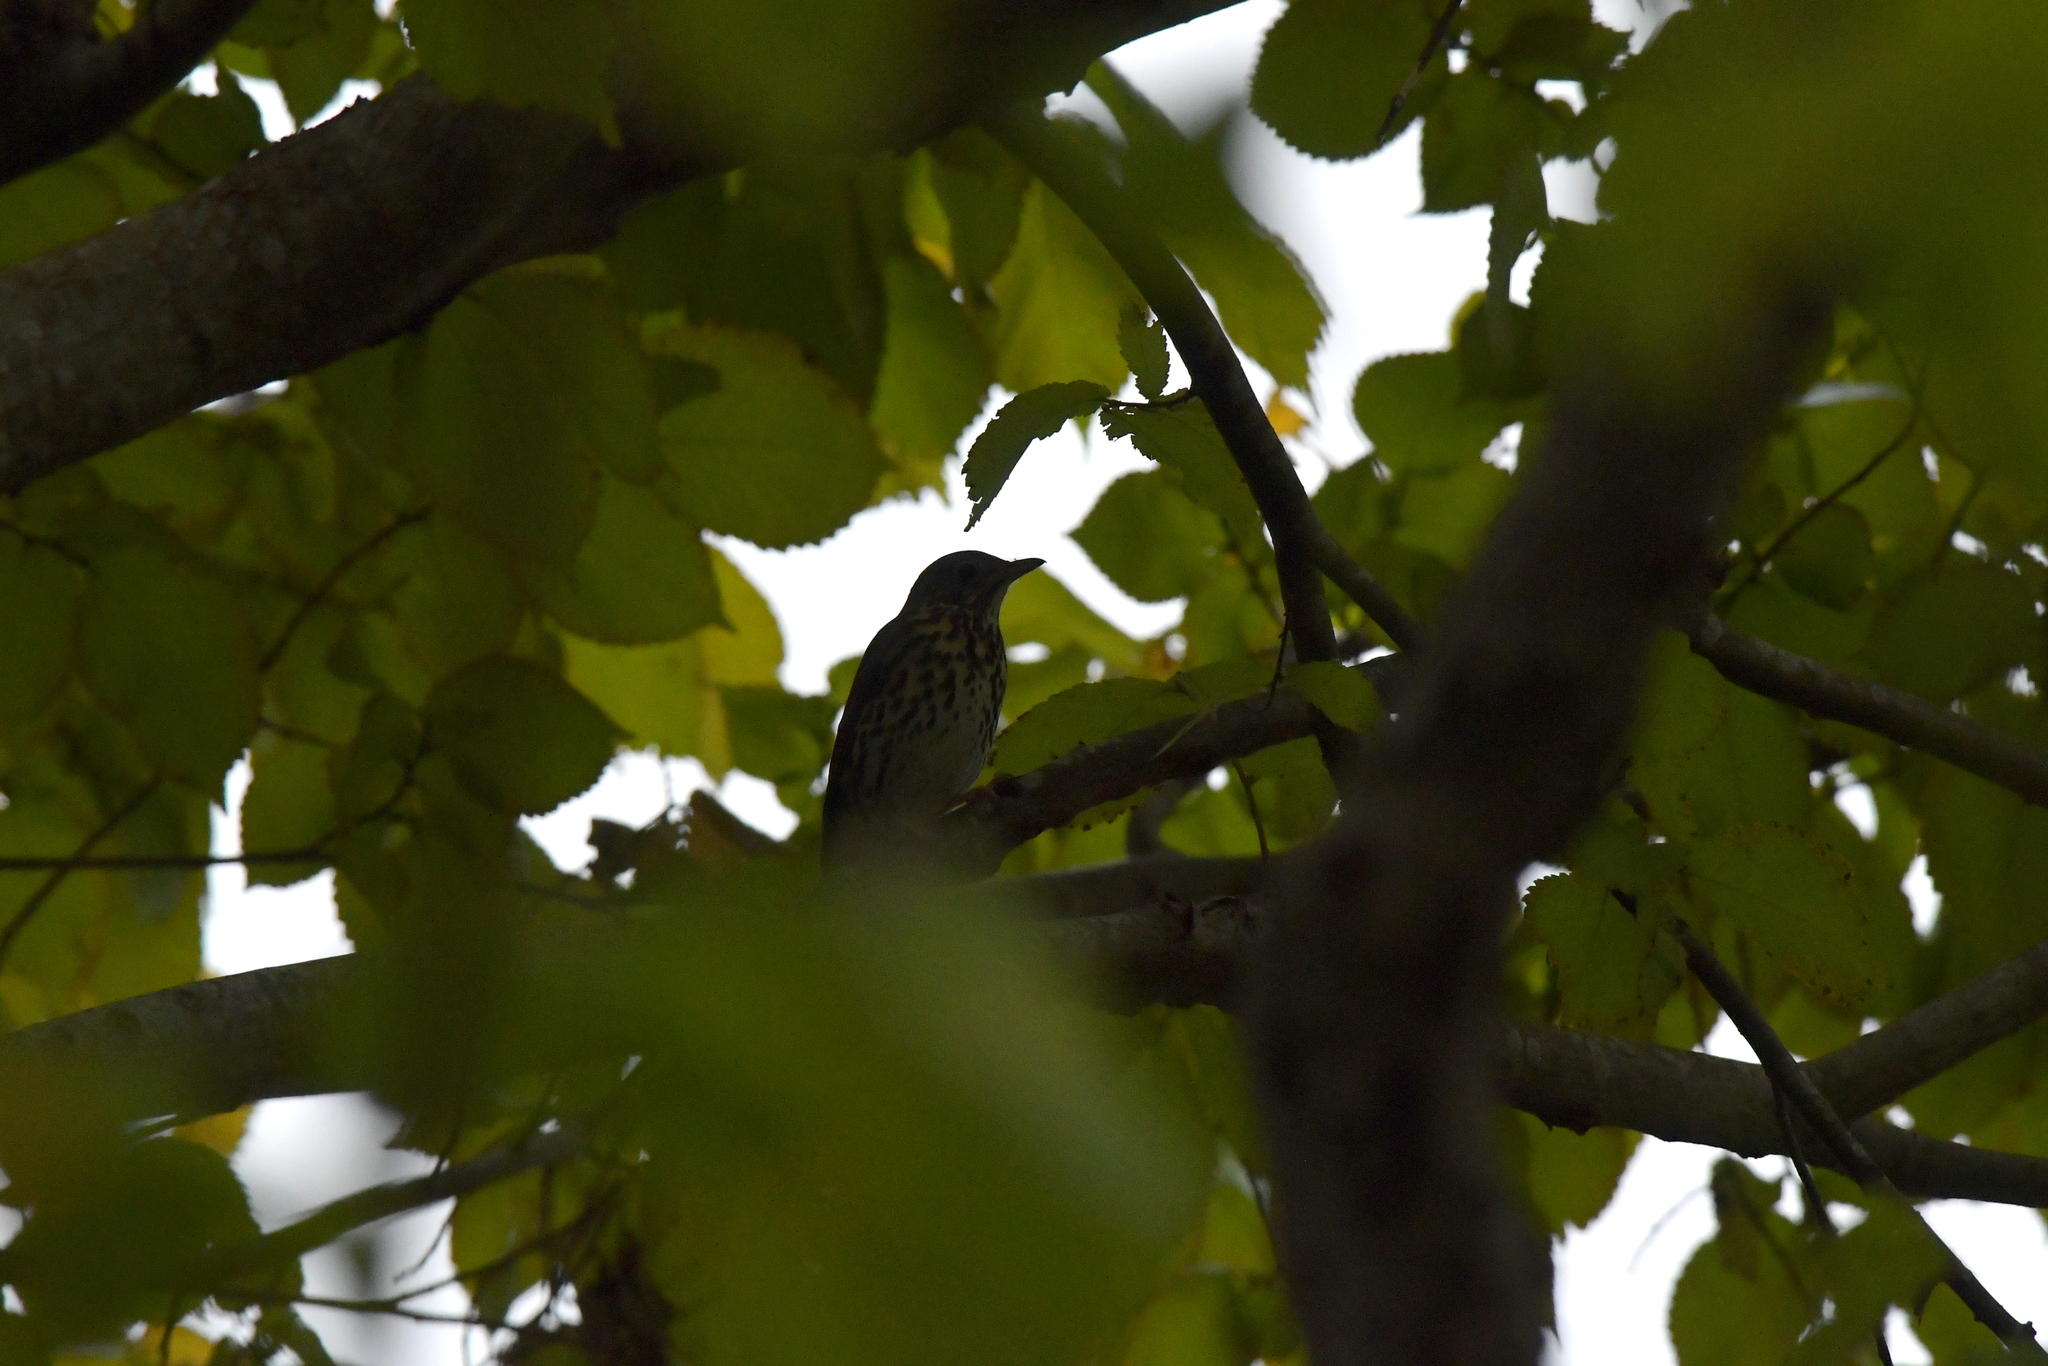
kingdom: Animalia
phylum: Chordata
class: Aves
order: Passeriformes
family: Turdidae
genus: Turdus
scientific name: Turdus philomelos
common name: Song thrush
